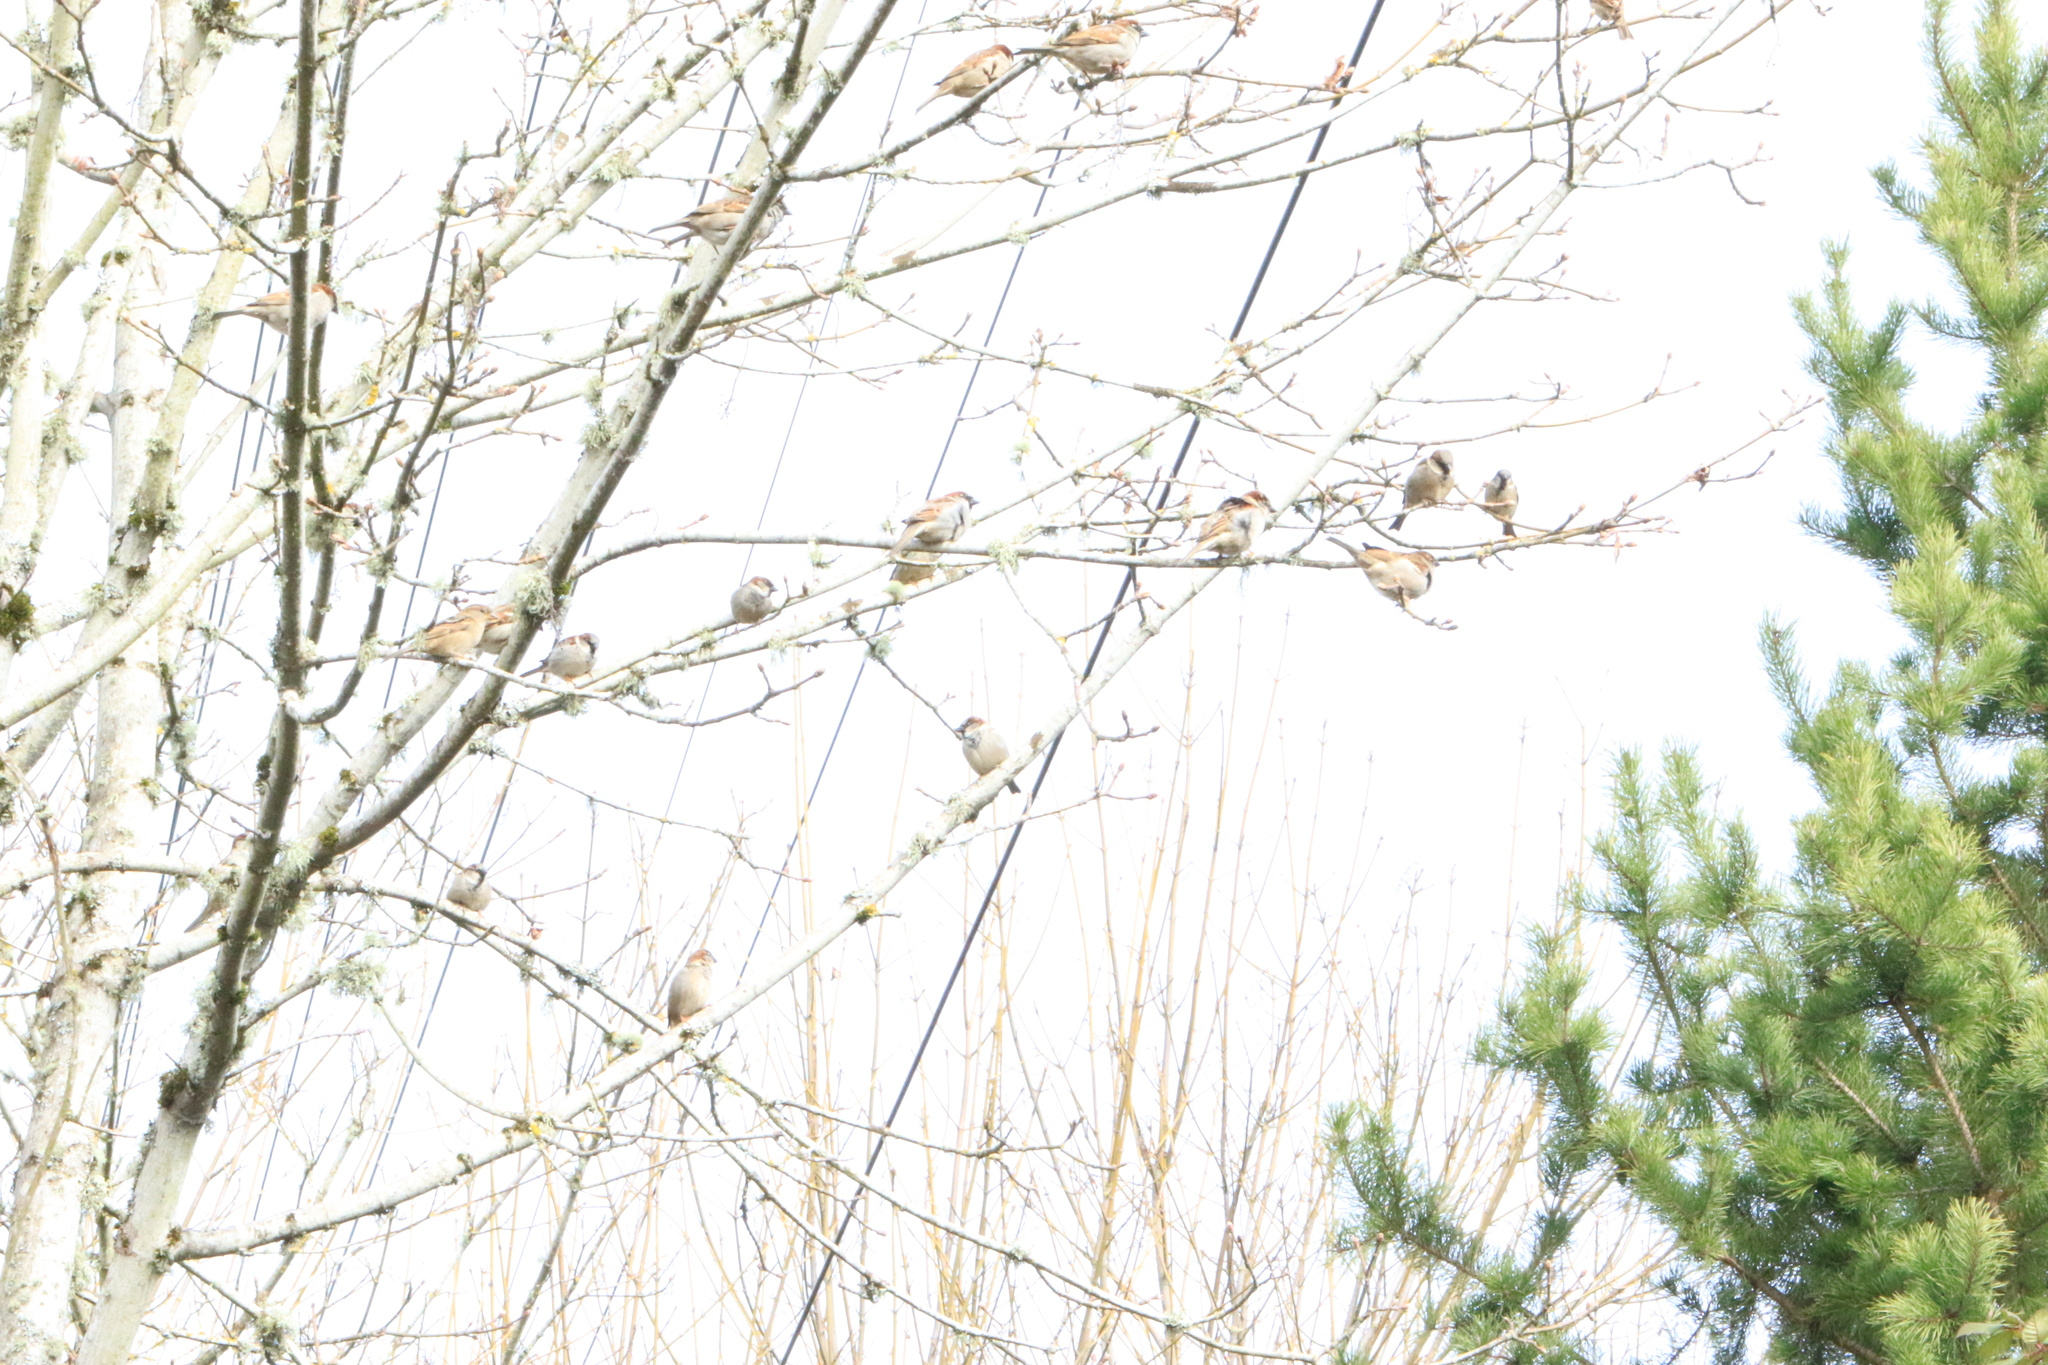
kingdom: Animalia
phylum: Chordata
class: Aves
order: Passeriformes
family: Passeridae
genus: Passer
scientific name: Passer domesticus
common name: House sparrow
